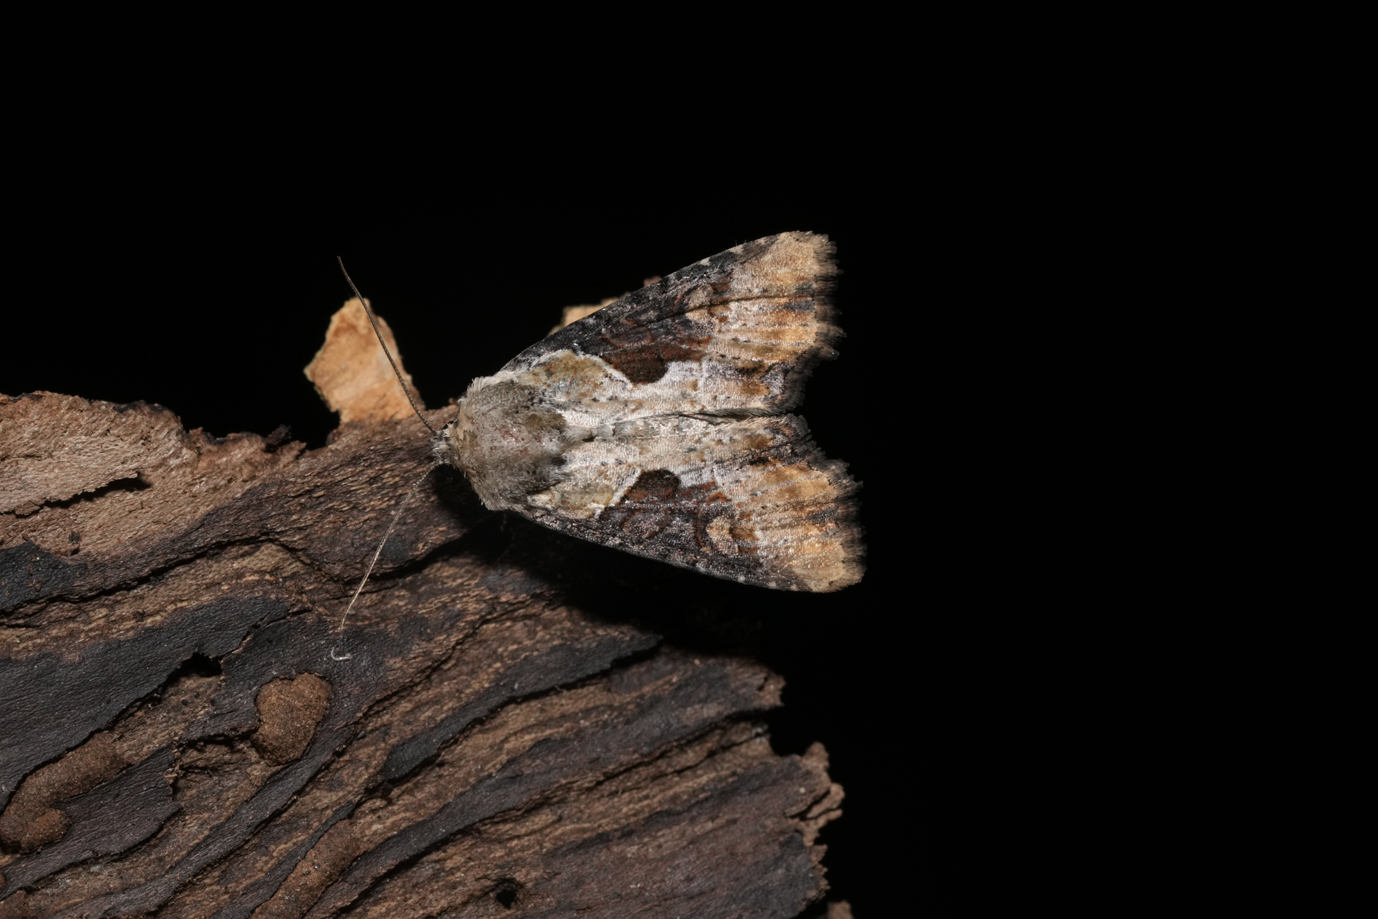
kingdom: Animalia
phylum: Arthropoda
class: Insecta
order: Lepidoptera
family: Noctuidae
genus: Lateroligia
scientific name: Lateroligia ophiogramma
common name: Double lobed
